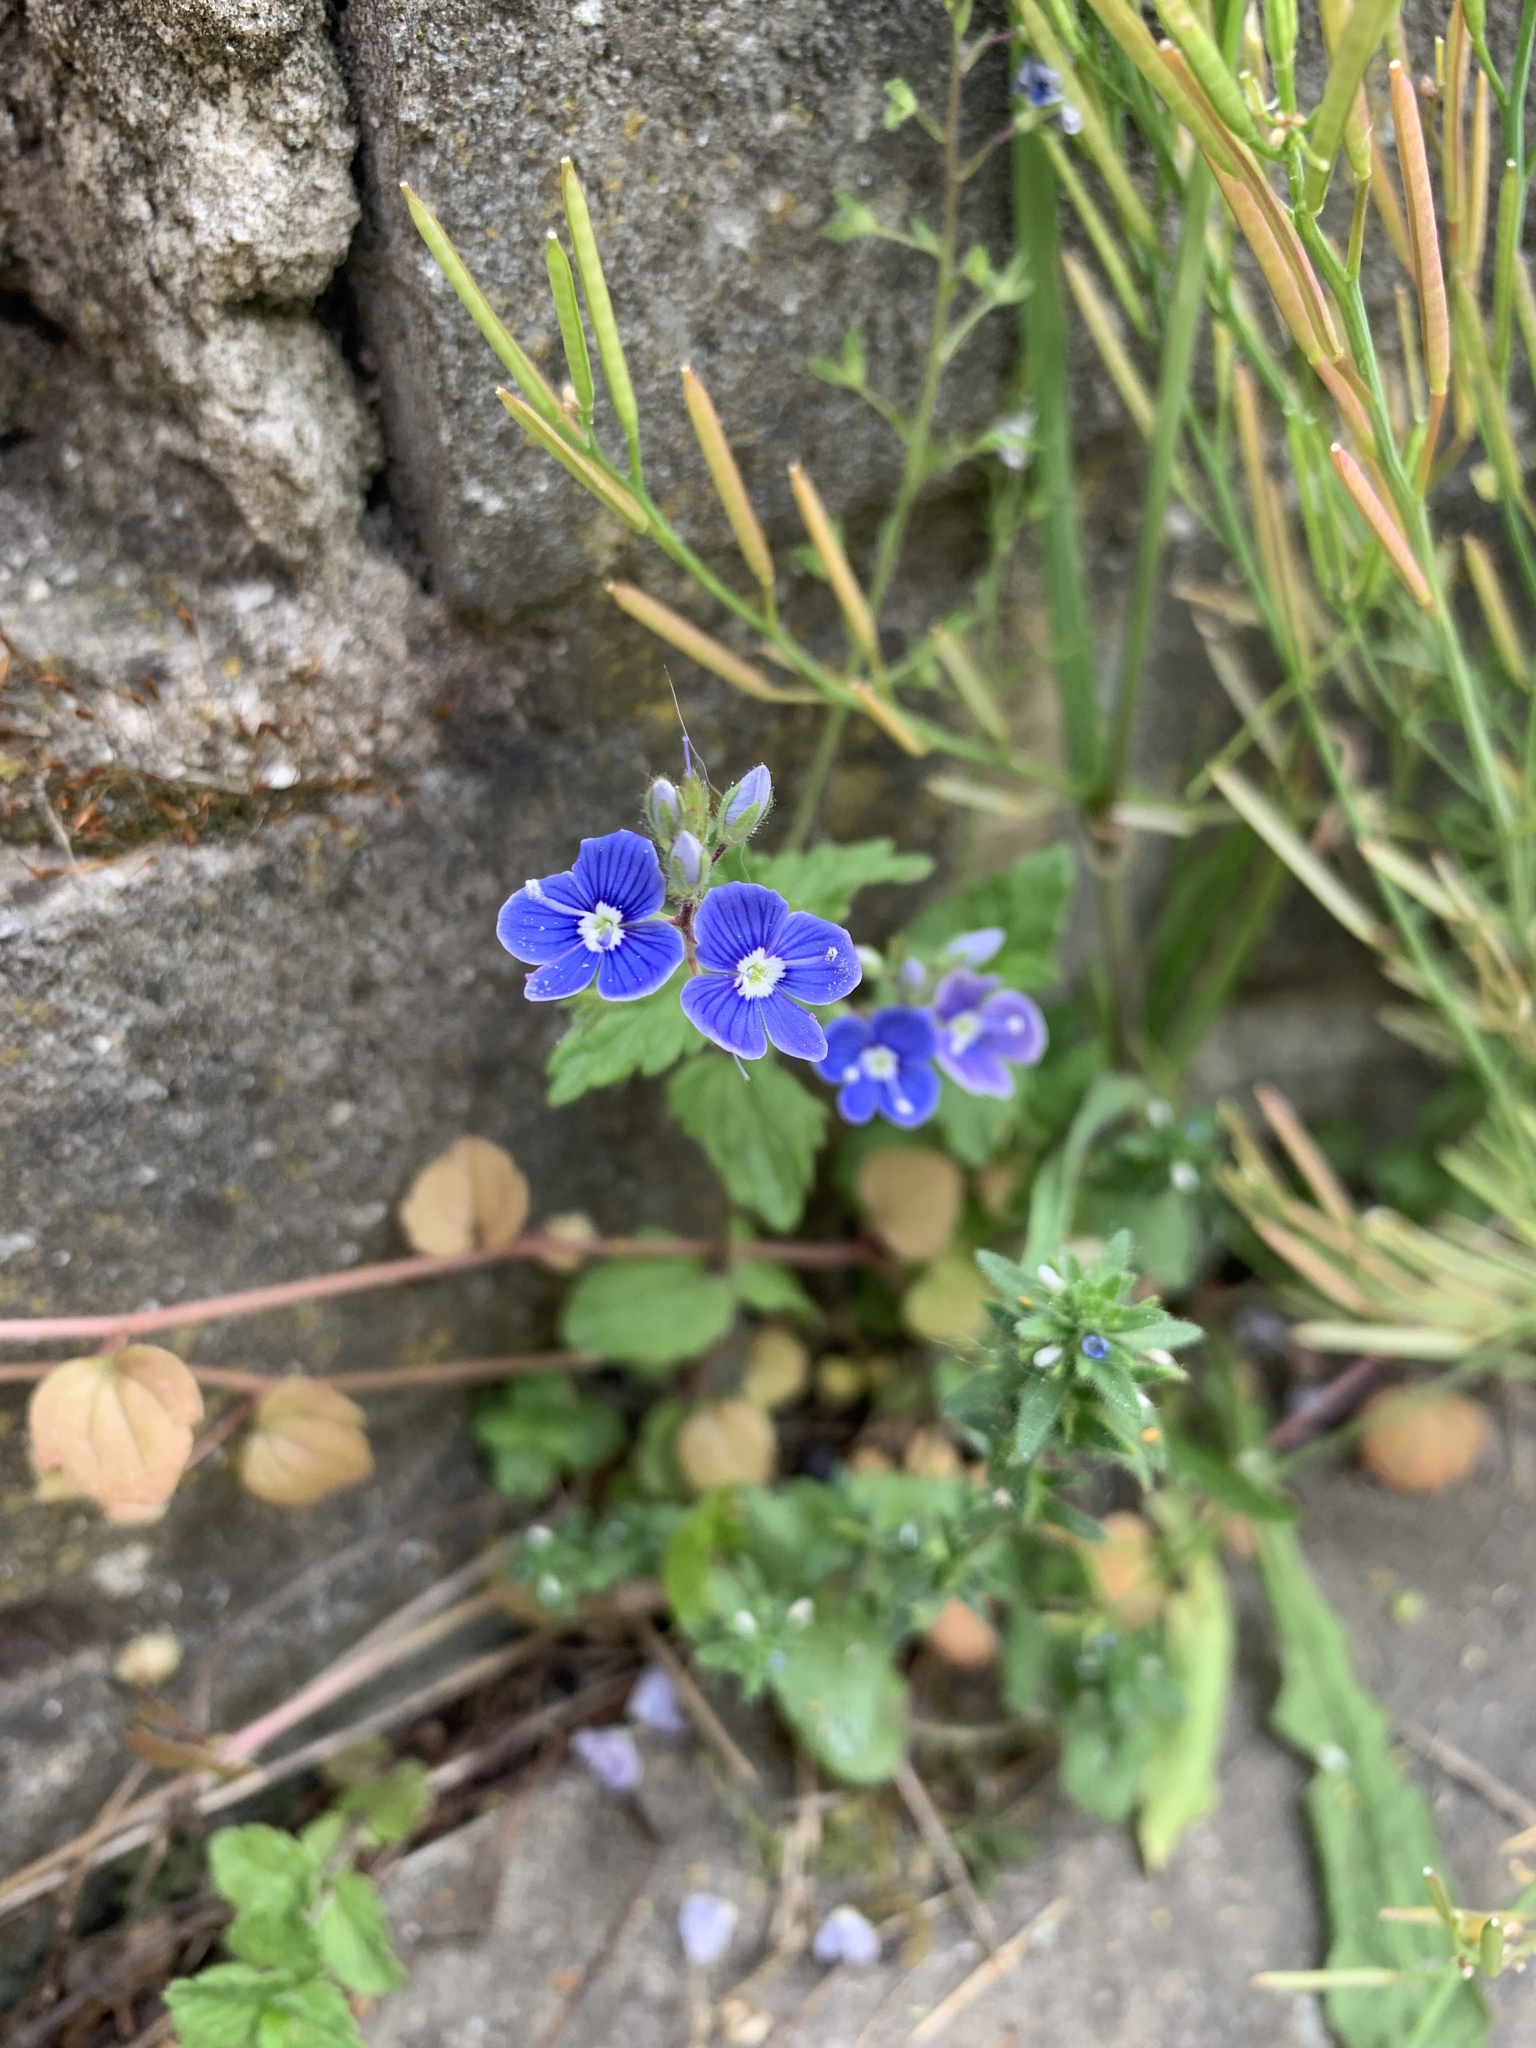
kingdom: Plantae
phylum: Tracheophyta
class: Magnoliopsida
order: Lamiales
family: Plantaginaceae
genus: Veronica
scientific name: Veronica chamaedrys
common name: Germander speedwell
